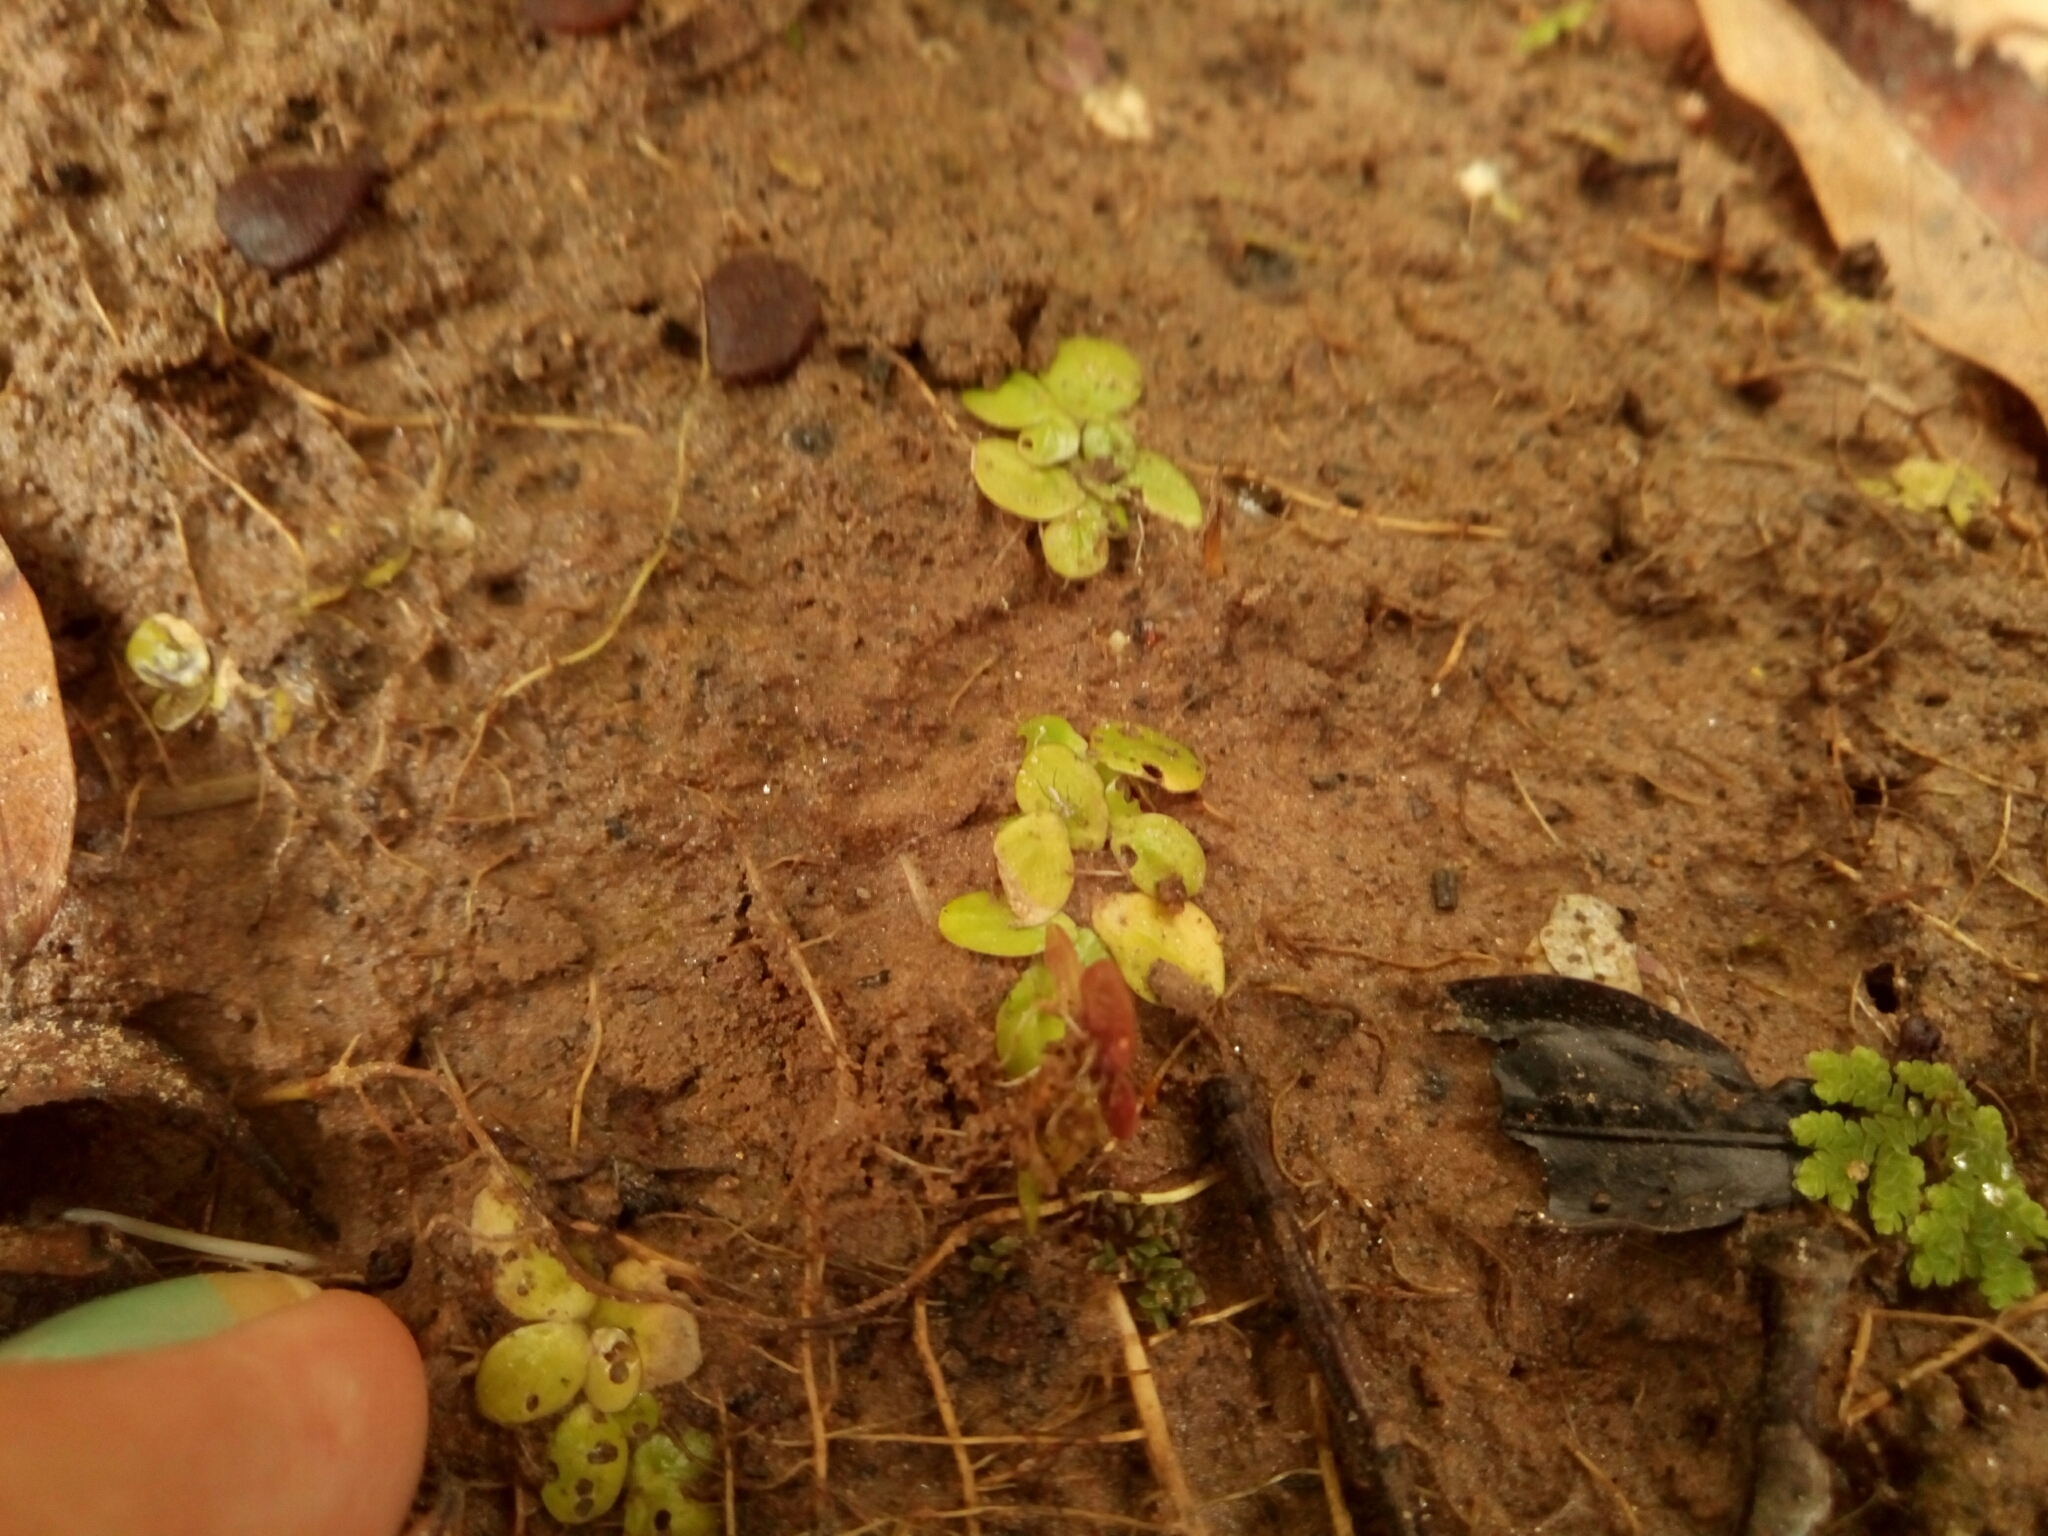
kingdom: Plantae
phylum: Tracheophyta
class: Liliopsida
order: Alismatales
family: Araceae
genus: Lemna
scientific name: Lemna minor
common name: Common duckweed
